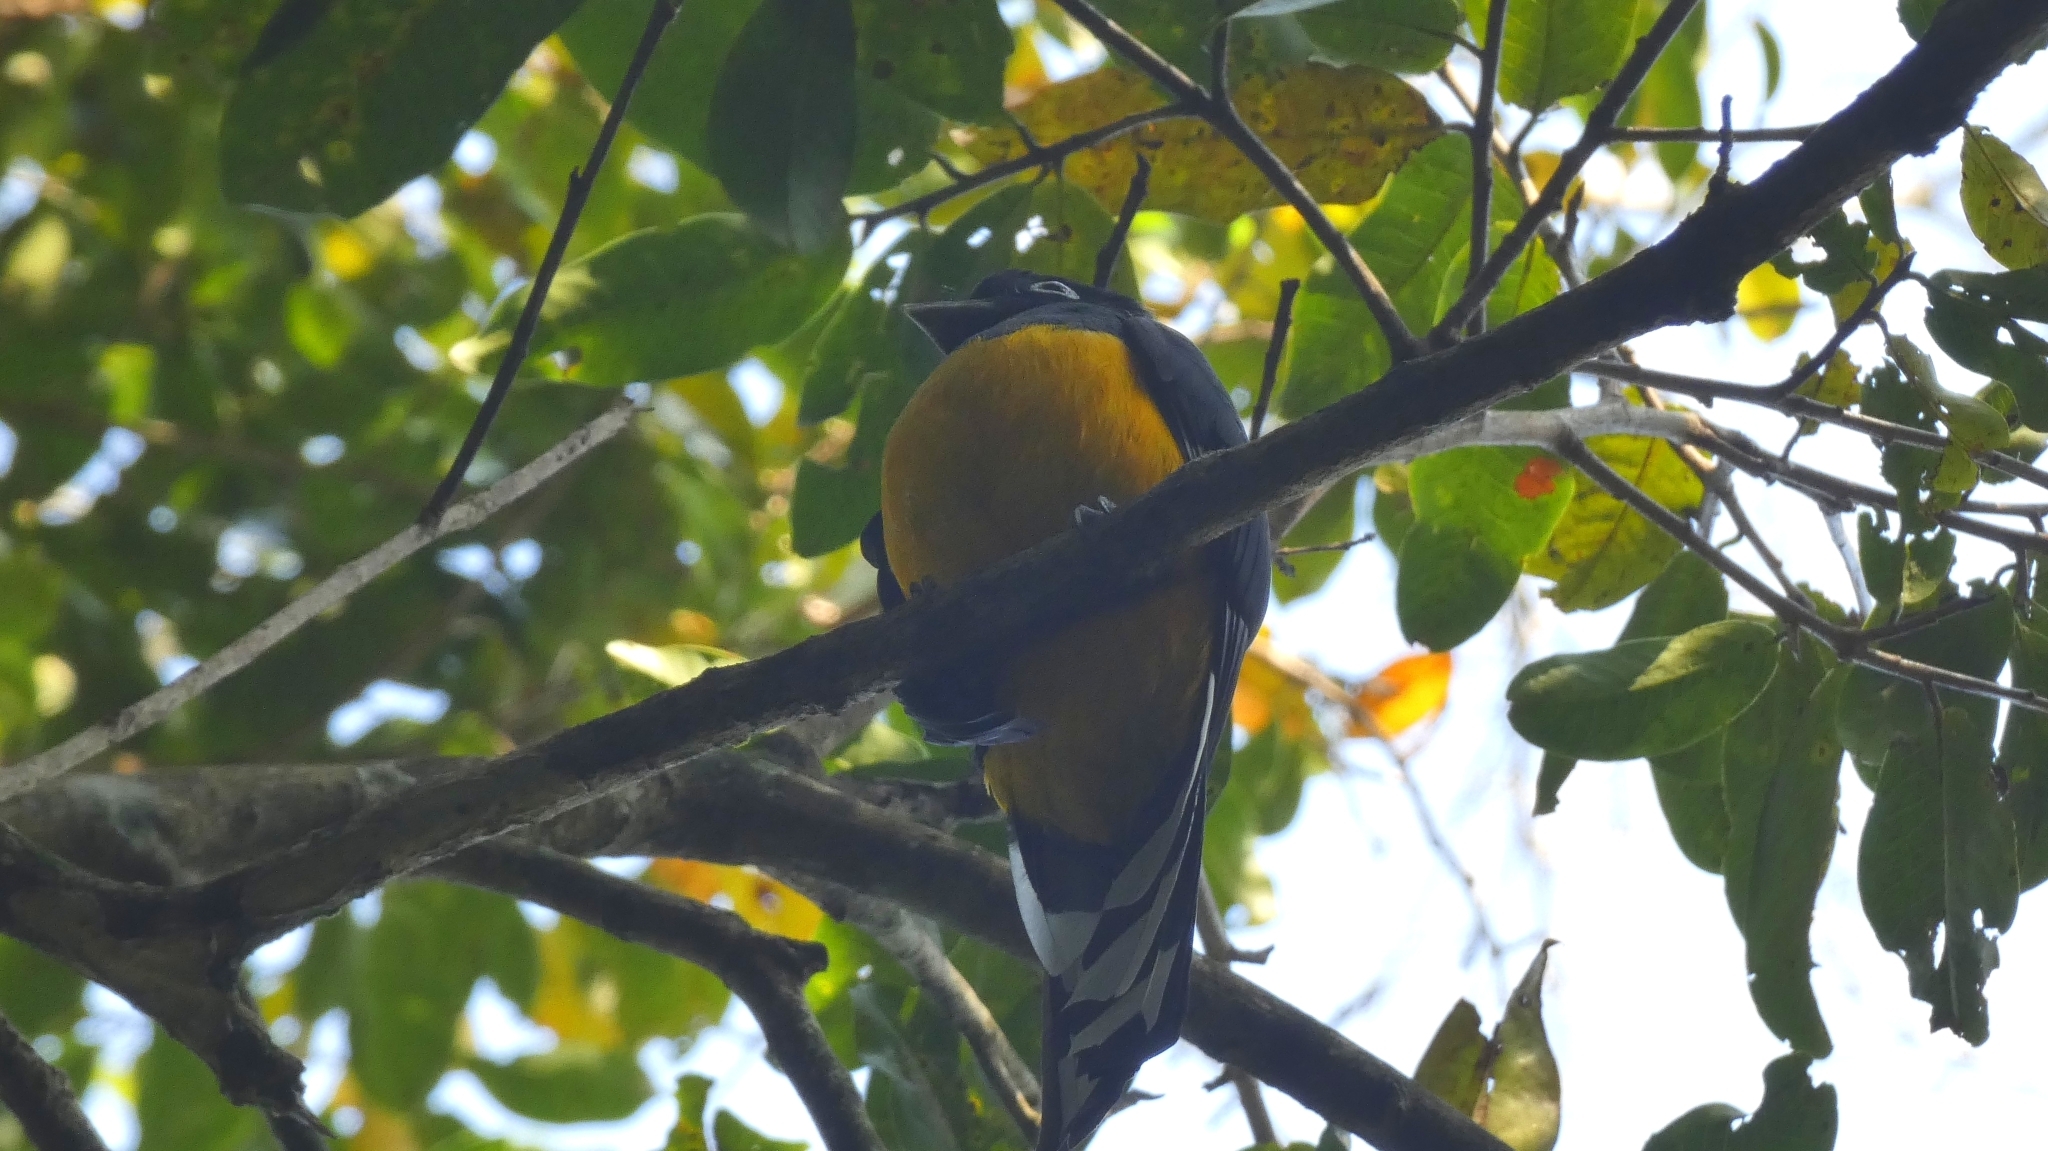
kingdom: Animalia
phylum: Chordata
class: Aves
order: Trogoniformes
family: Trogonidae
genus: Trogon
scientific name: Trogon viridis
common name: Green-backed trogon
